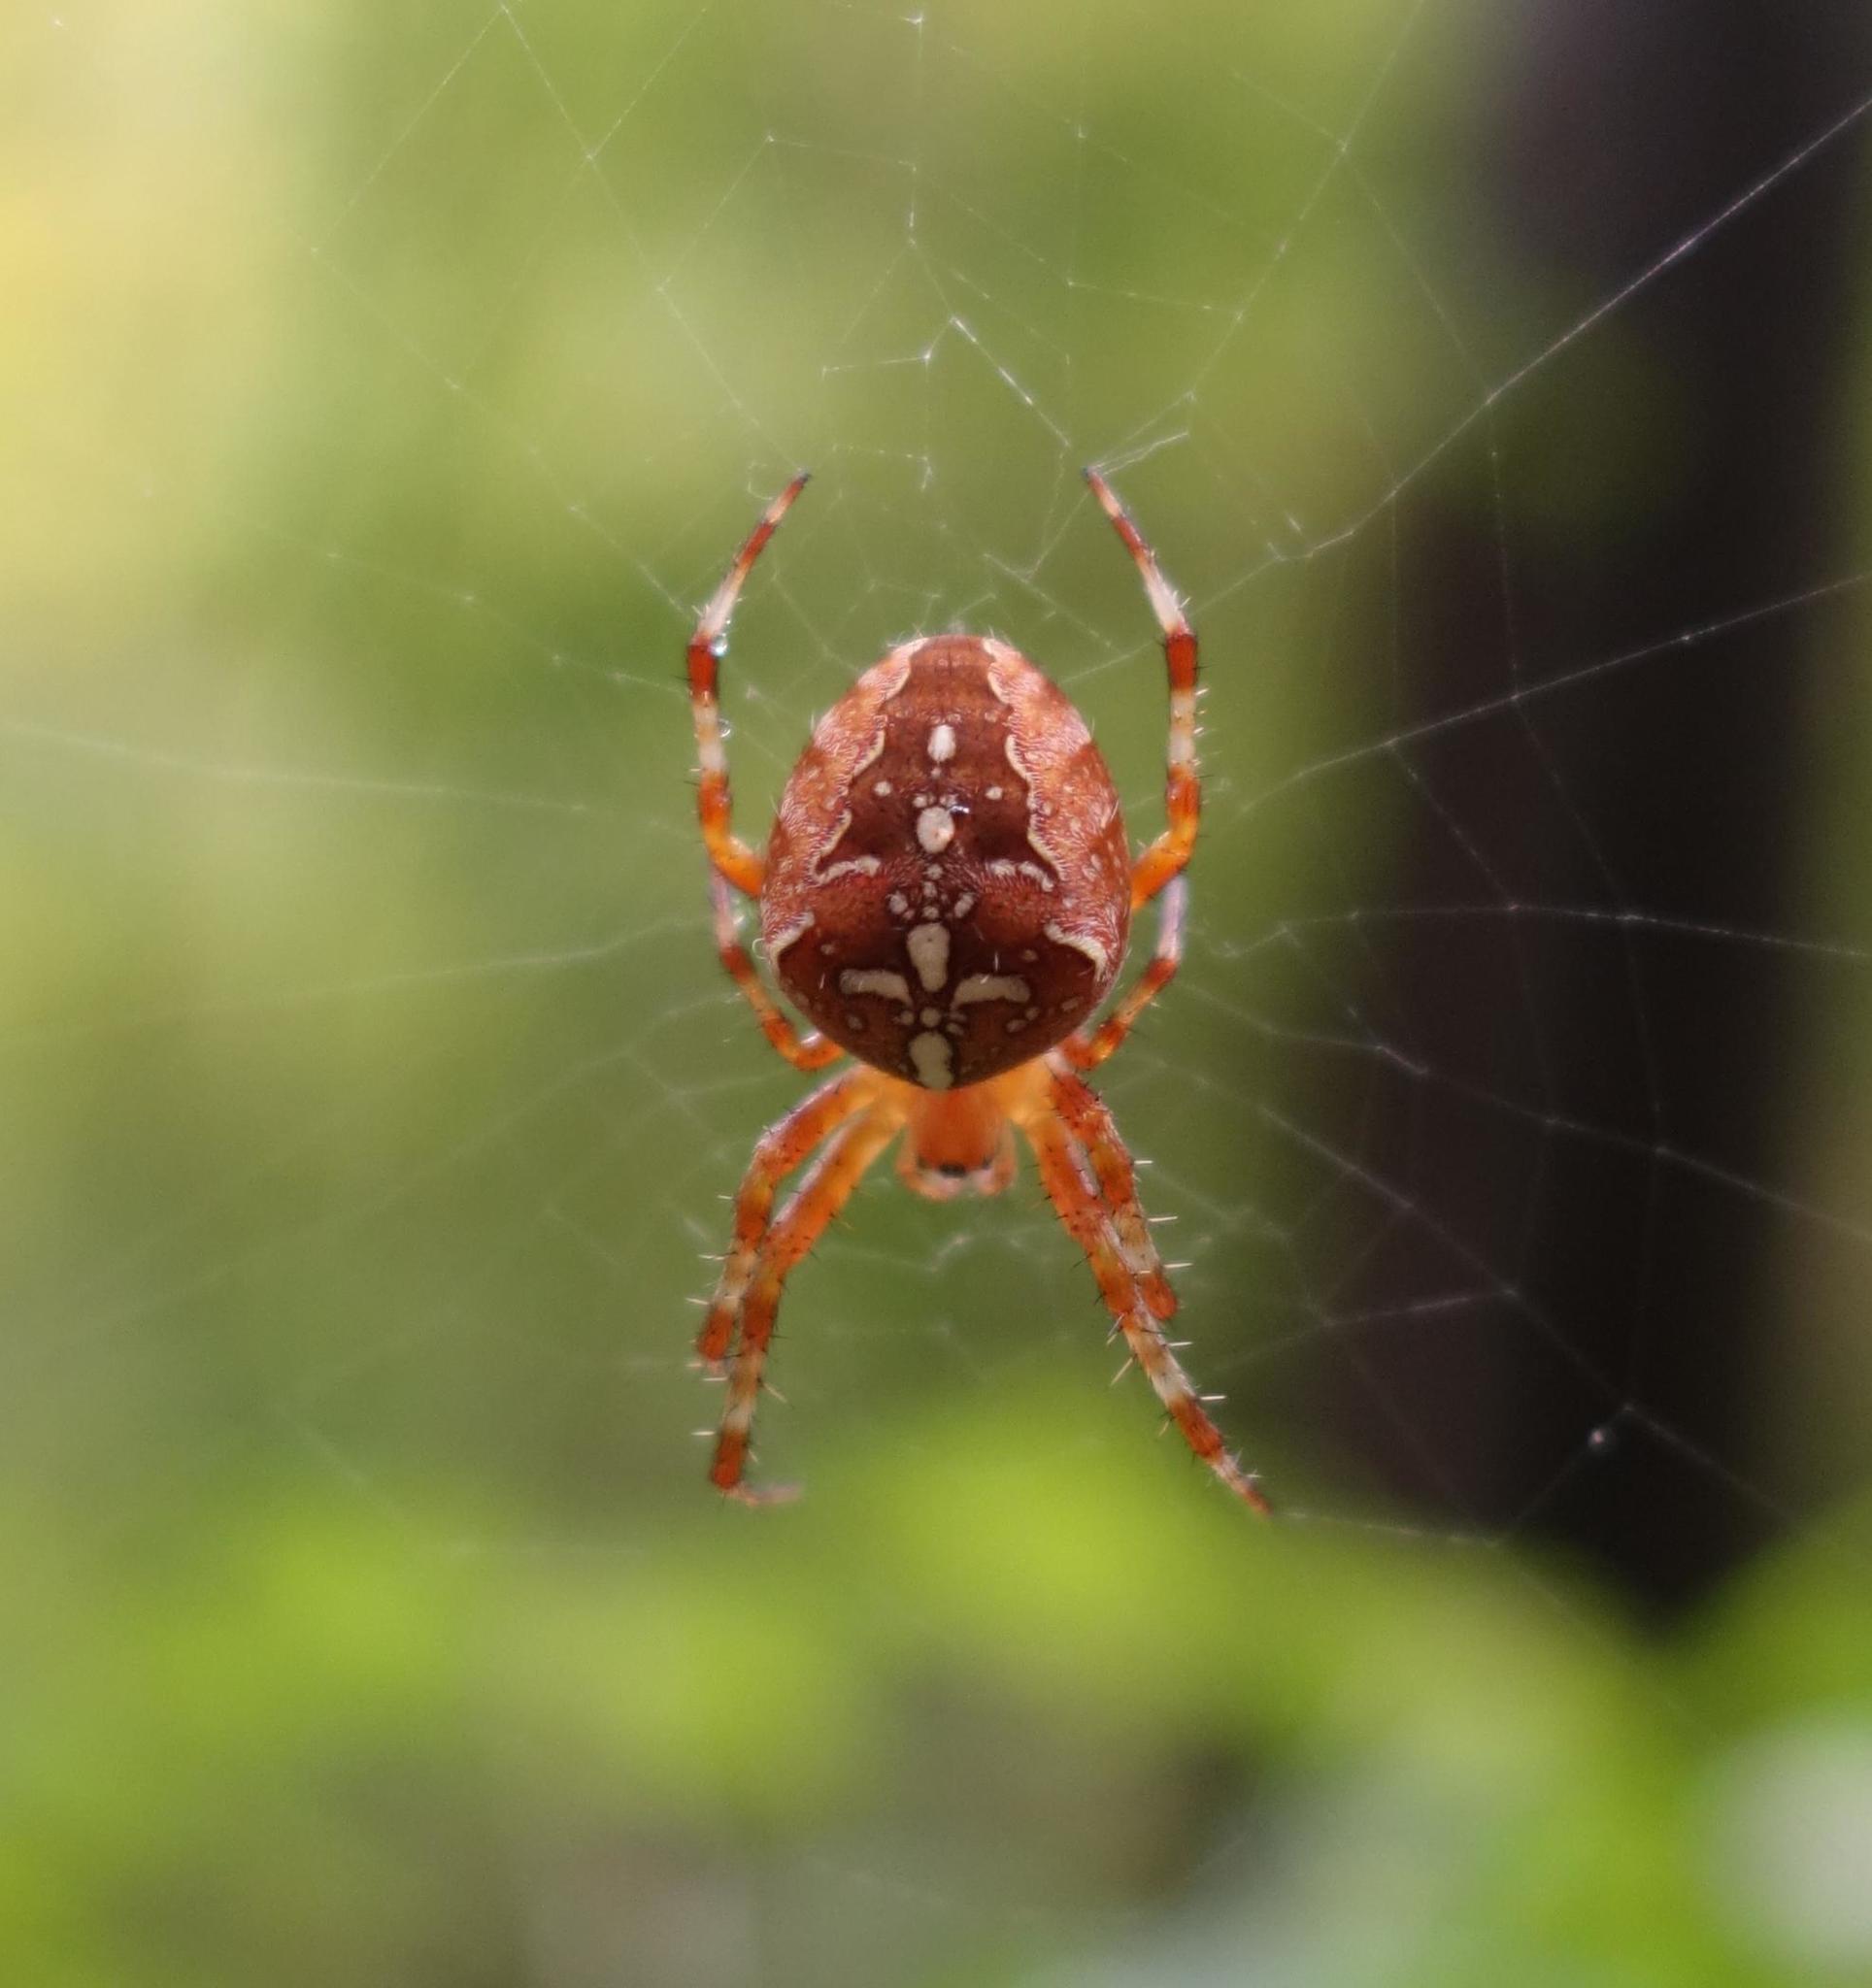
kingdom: Animalia
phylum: Arthropoda
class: Arachnida
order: Araneae
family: Araneidae
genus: Araneus
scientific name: Araneus diadematus
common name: Cross orbweaver
